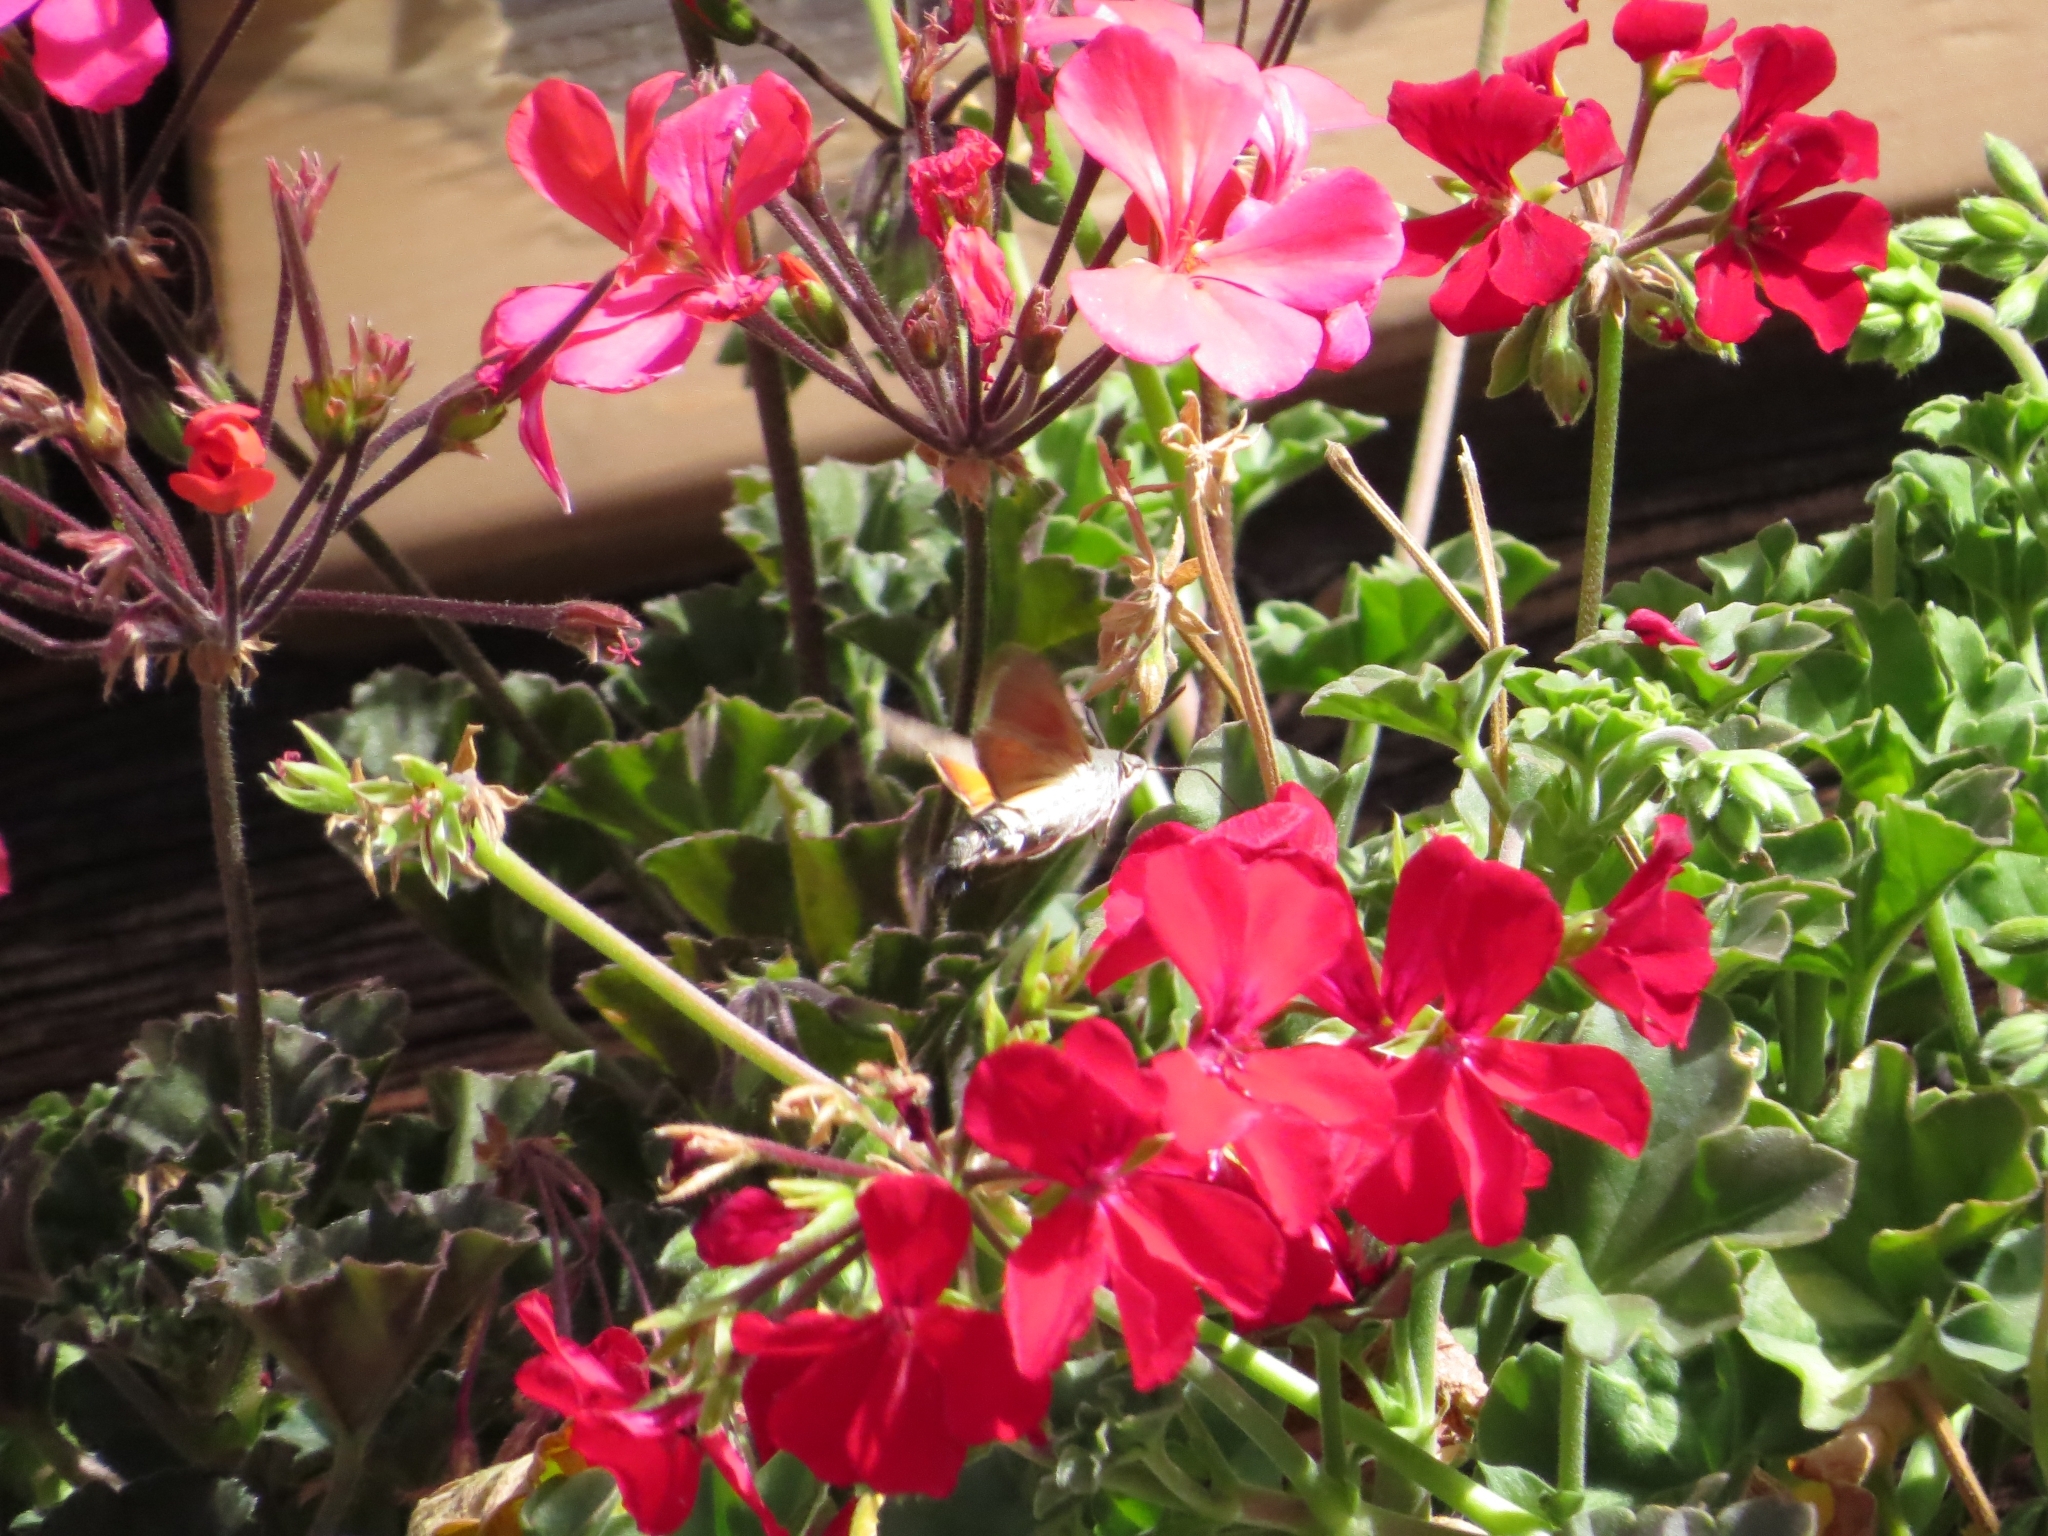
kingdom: Animalia
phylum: Arthropoda
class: Insecta
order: Lepidoptera
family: Sphingidae
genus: Macroglossum
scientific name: Macroglossum stellatarum
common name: Humming-bird hawk-moth
